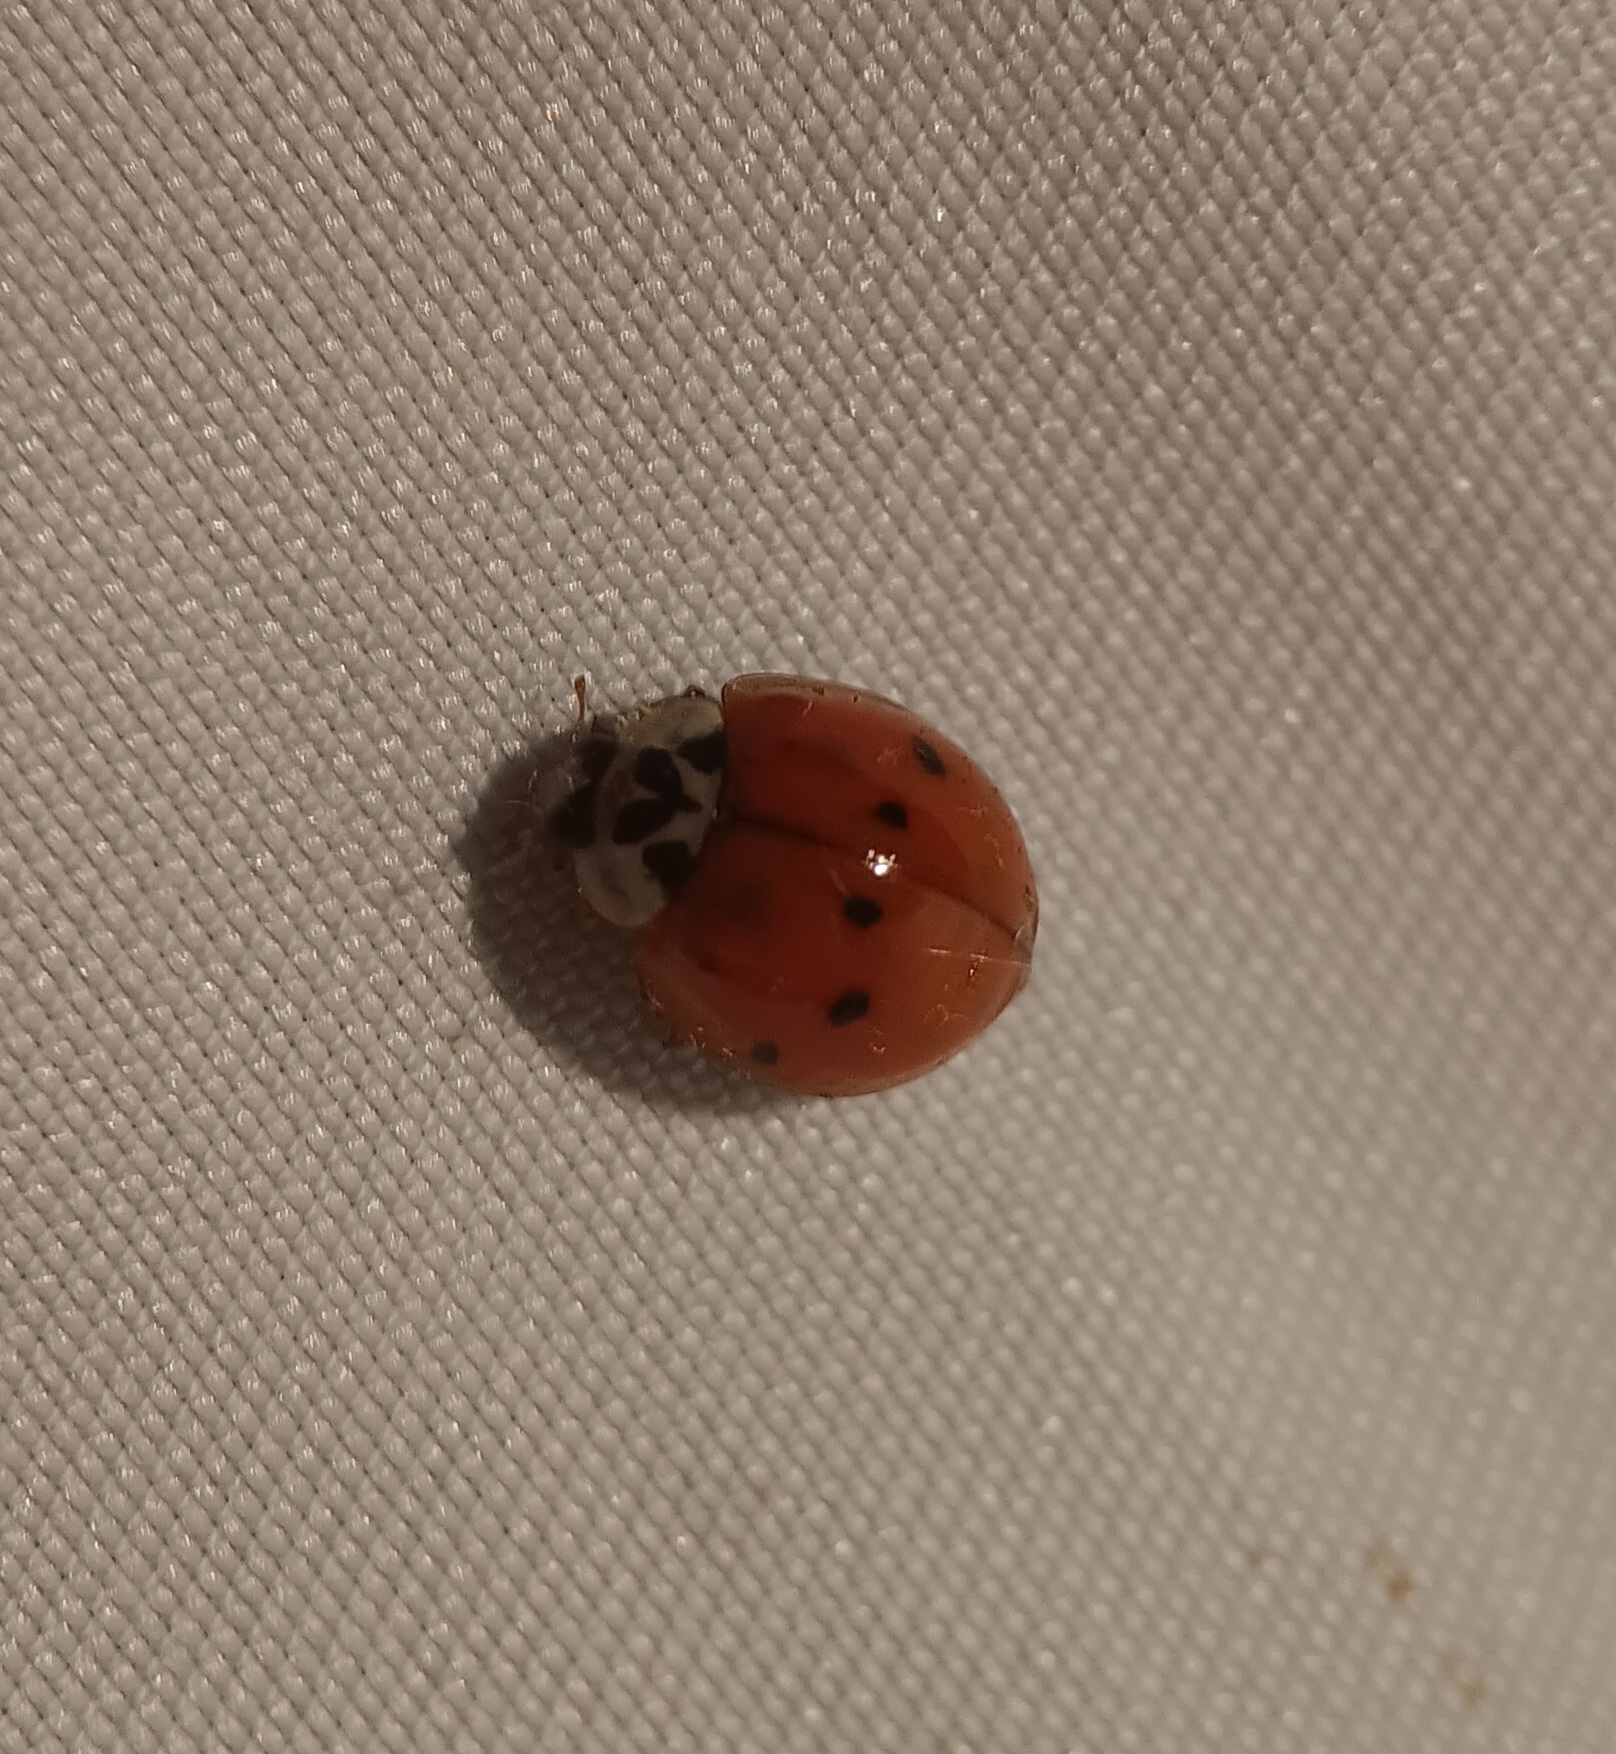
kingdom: Animalia
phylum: Arthropoda
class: Insecta
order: Coleoptera
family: Coccinellidae
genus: Harmonia
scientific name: Harmonia axyridis
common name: Harlequin ladybird
